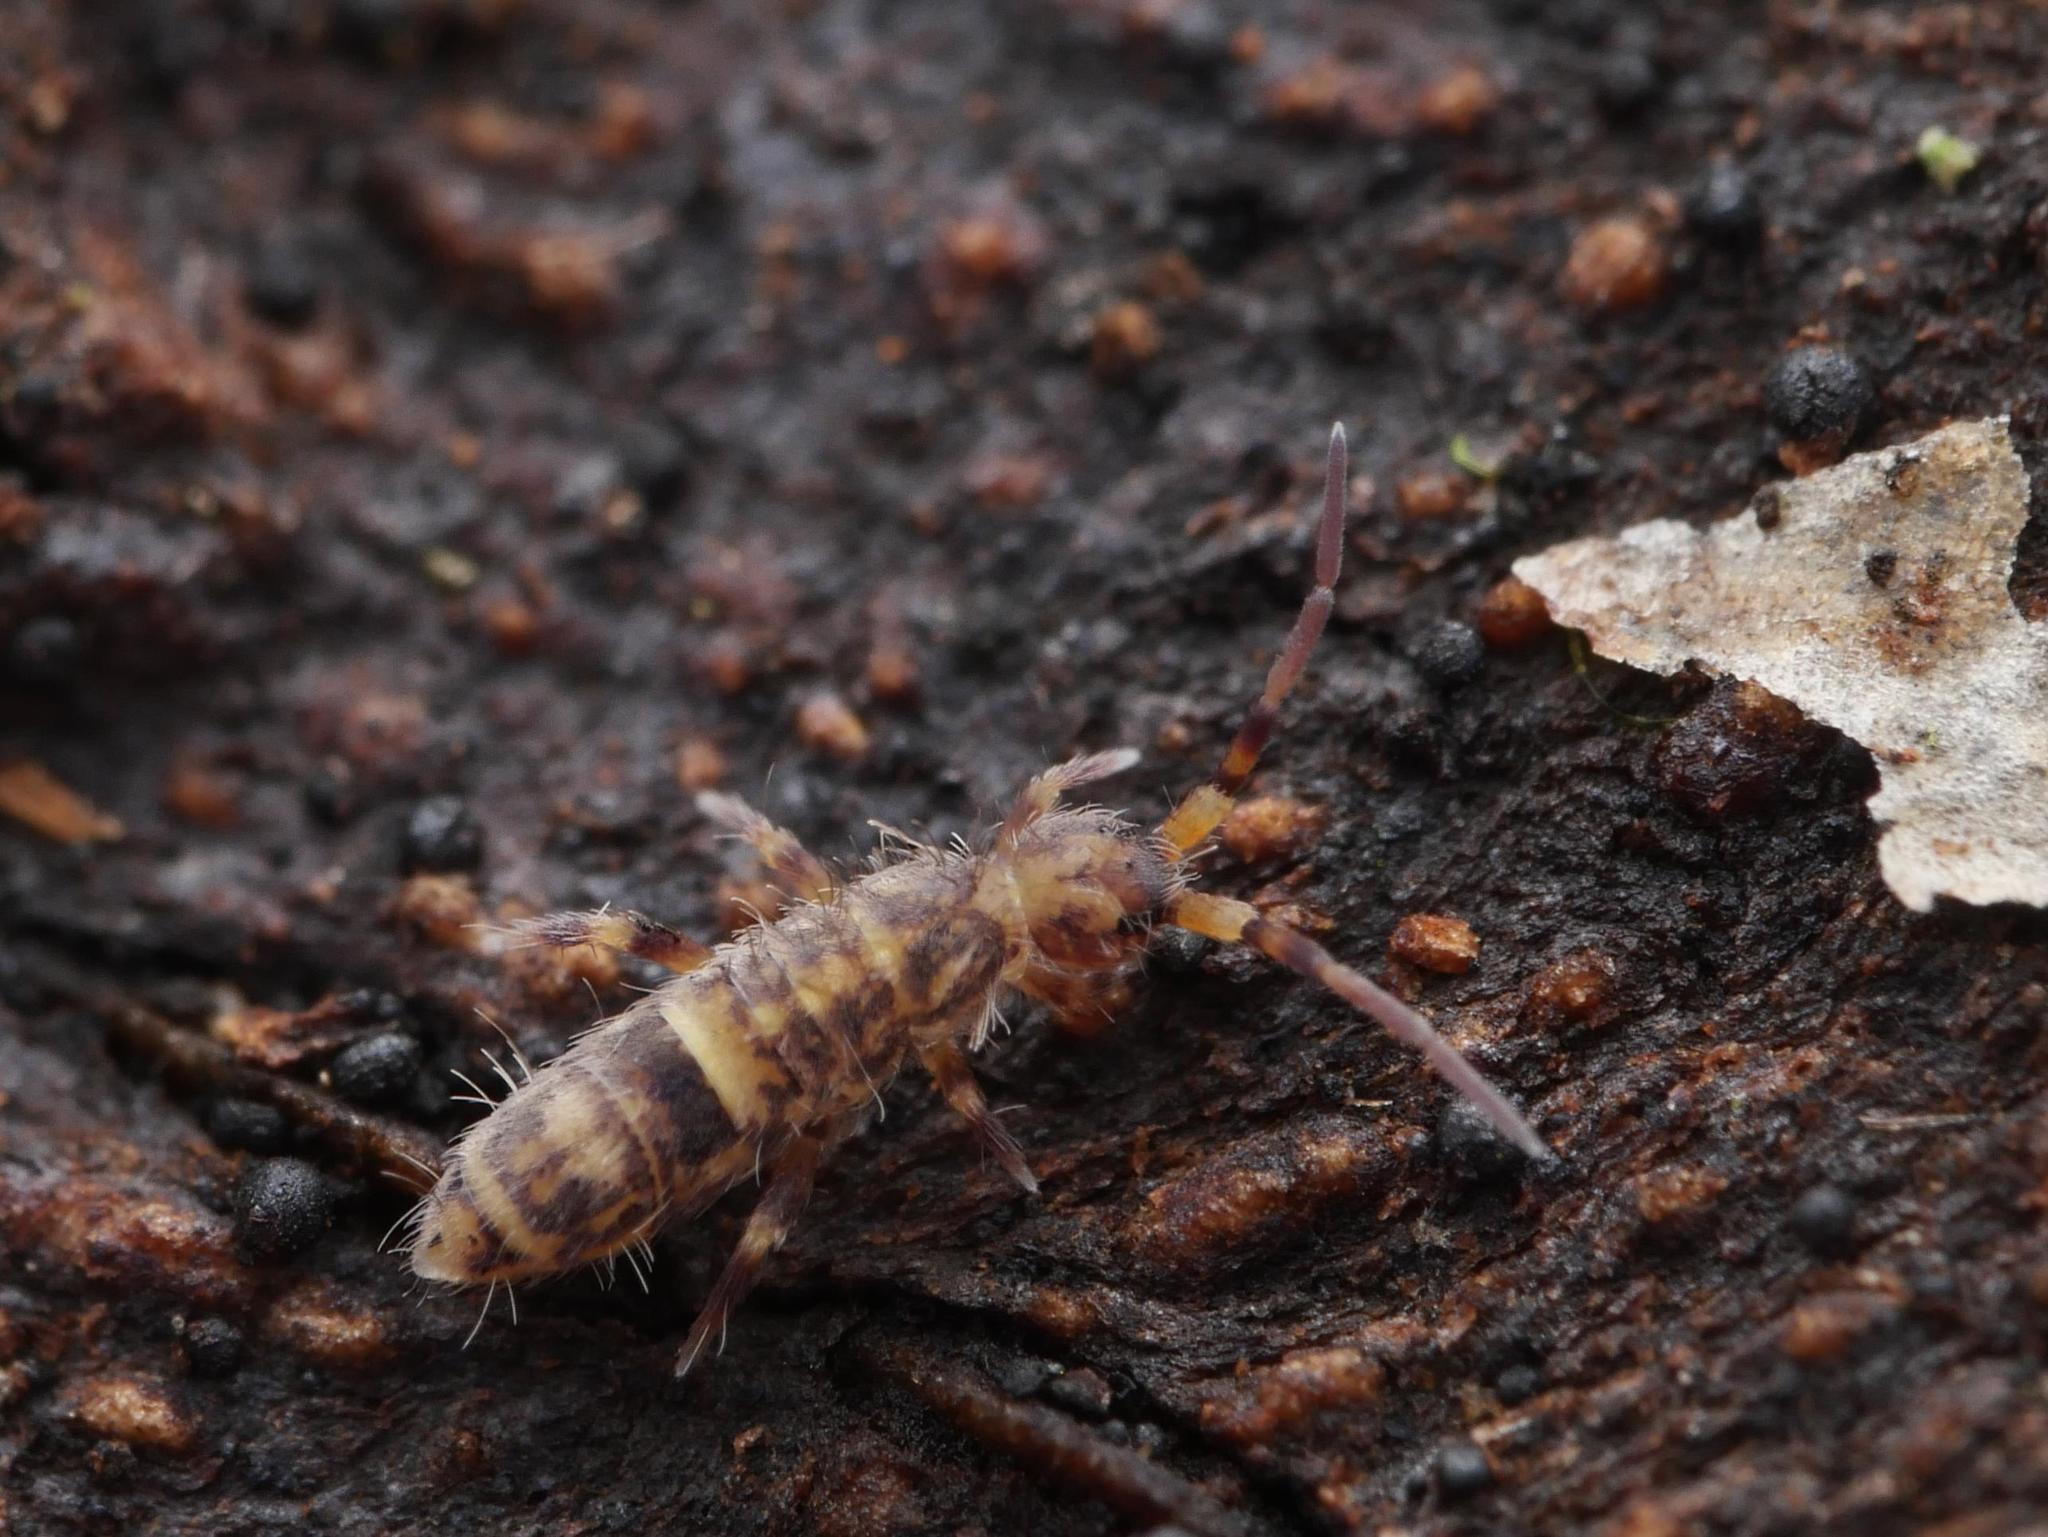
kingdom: Animalia
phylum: Arthropoda
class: Collembola
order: Entomobryomorpha
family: Orchesellidae
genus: Orchesella
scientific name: Orchesella cincta
